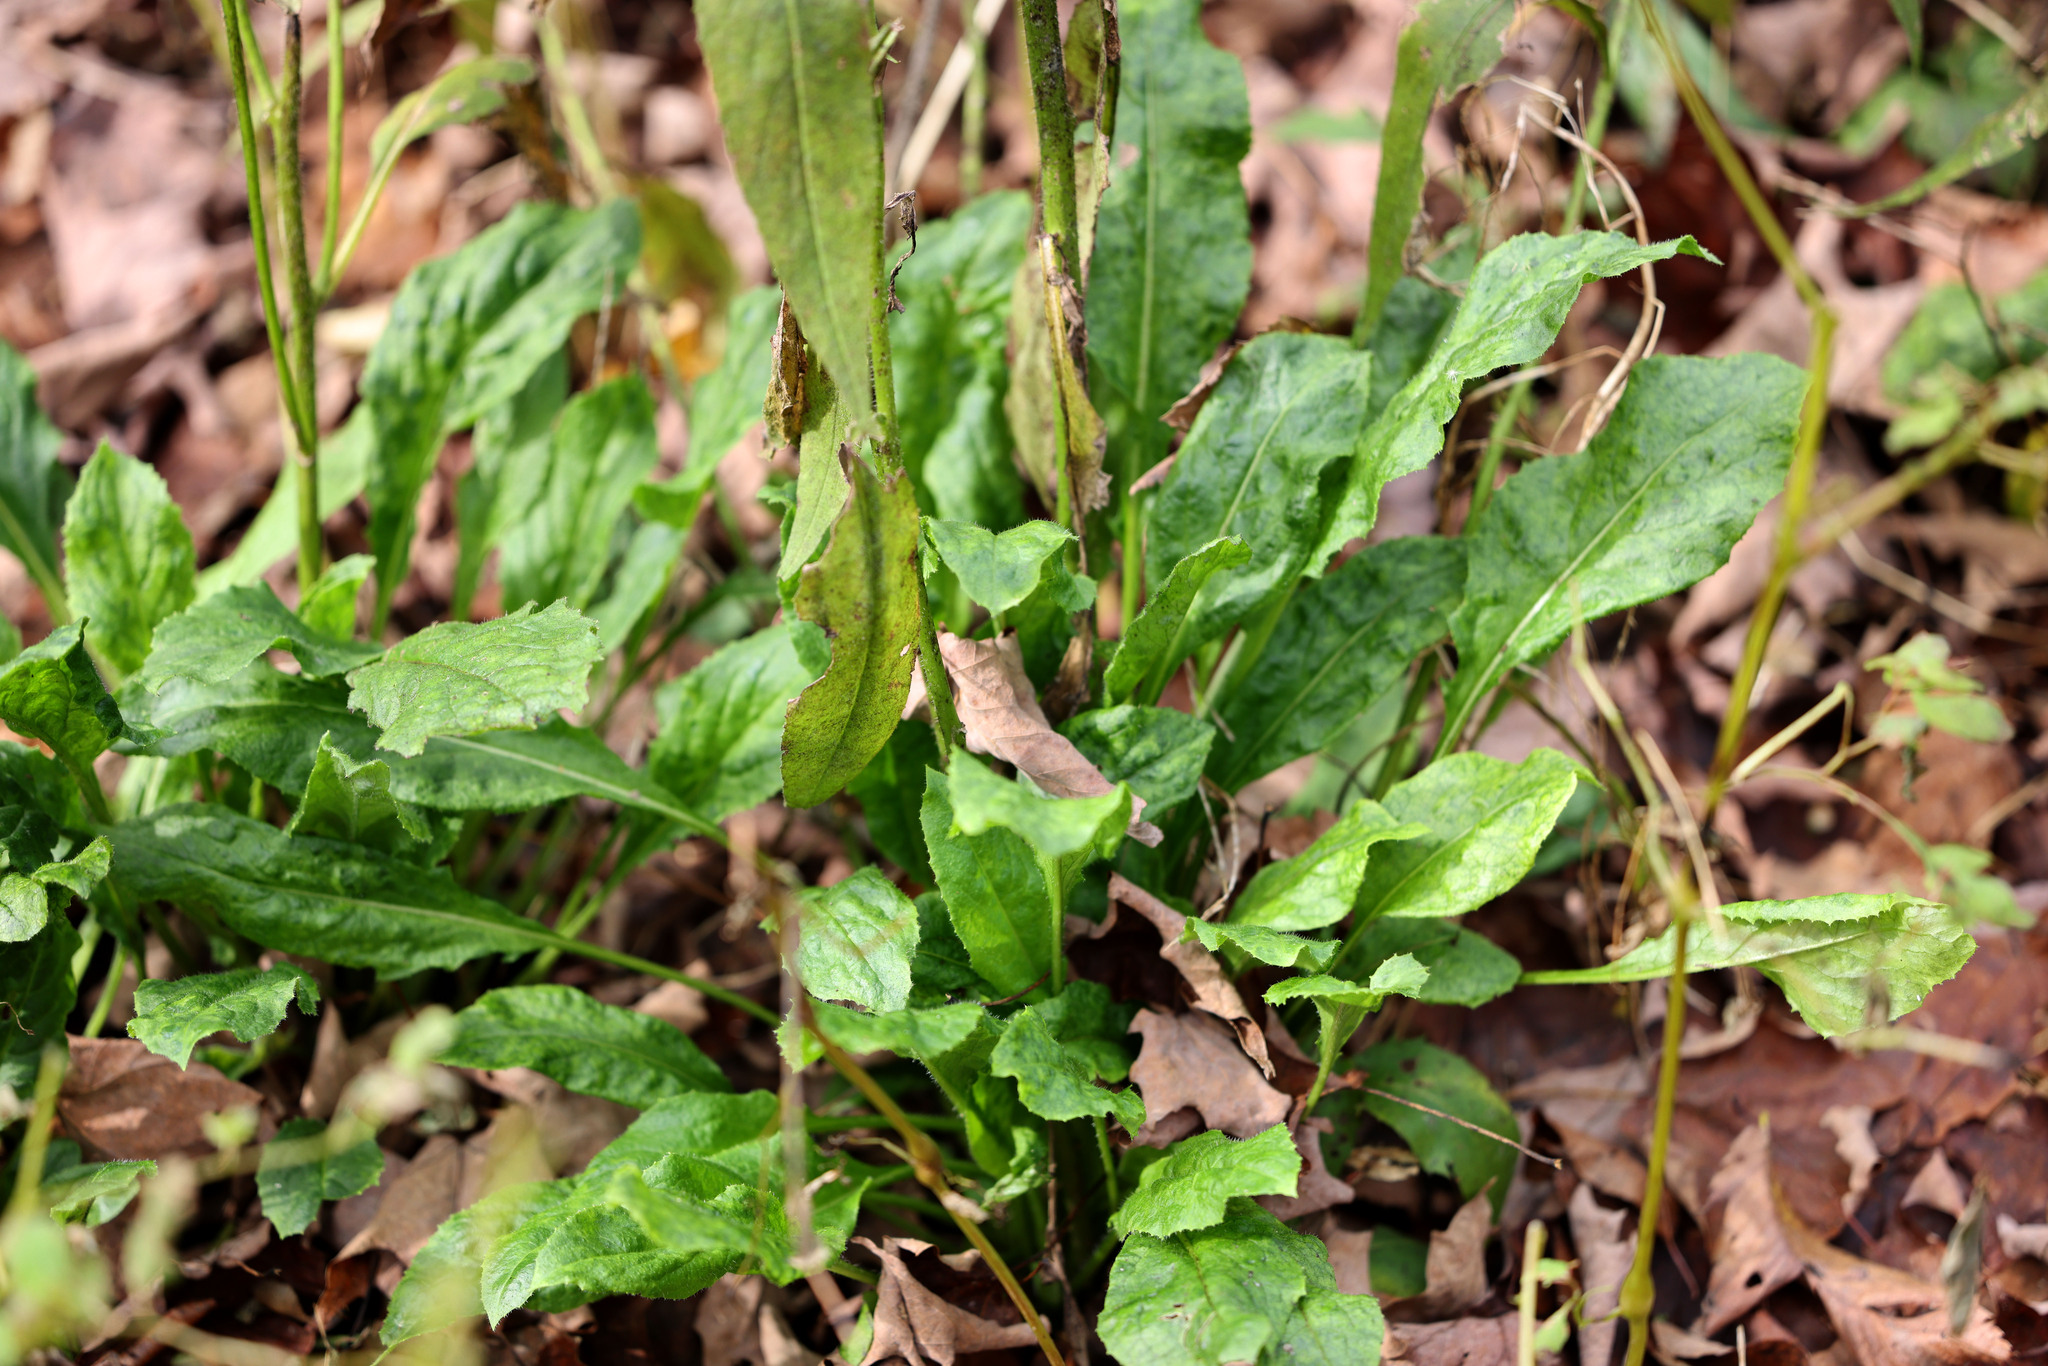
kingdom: Plantae
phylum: Tracheophyta
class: Magnoliopsida
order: Brassicales
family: Brassicaceae
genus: Hesperis
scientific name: Hesperis matronalis
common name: Dame's-violet
